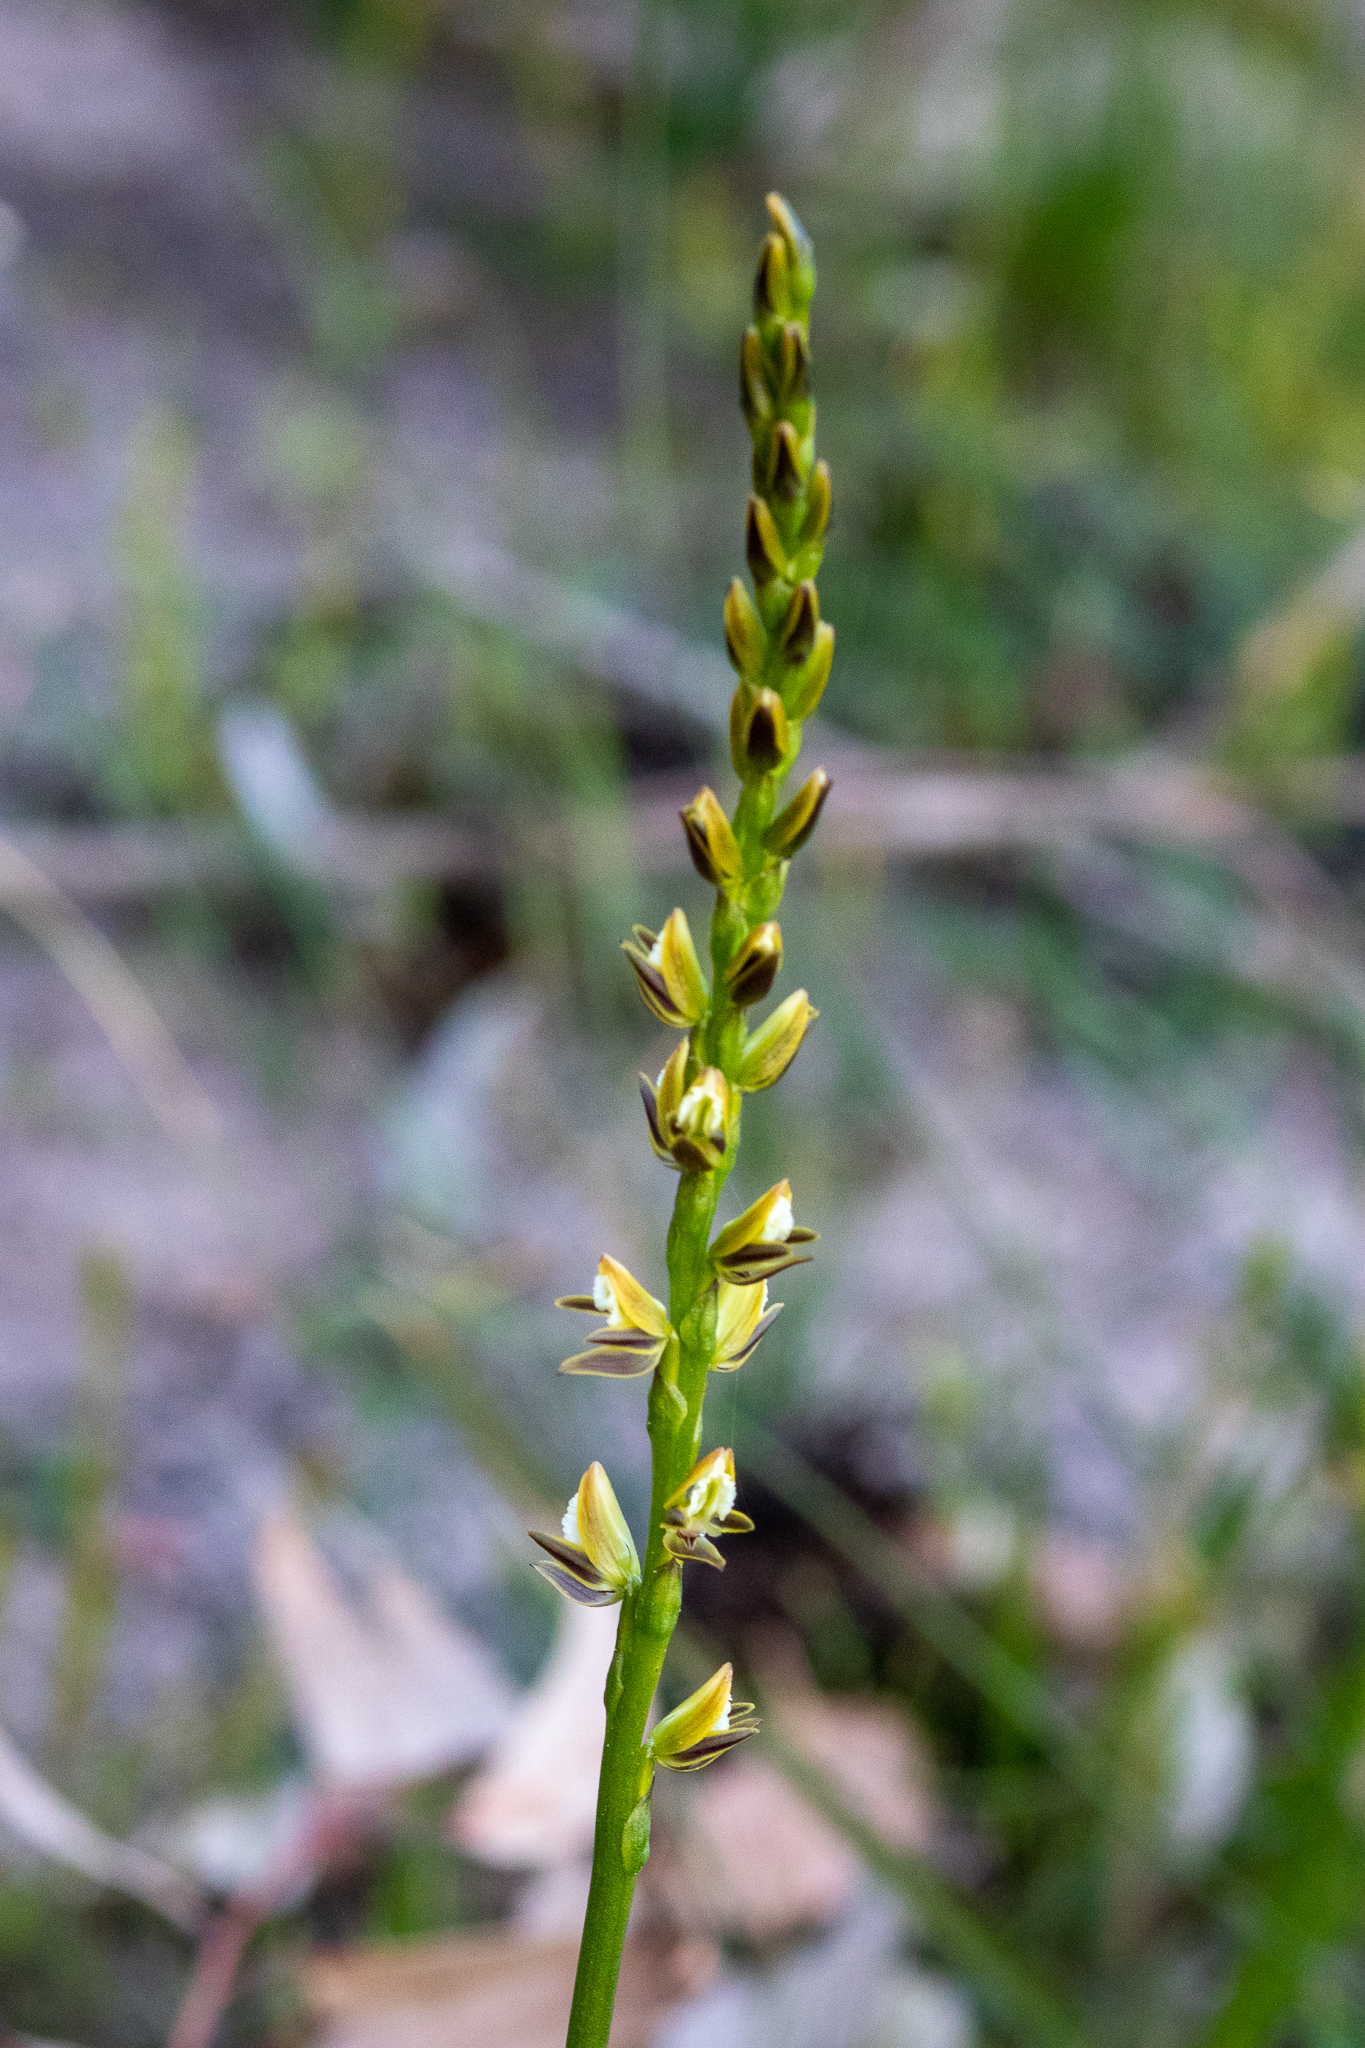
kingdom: Plantae
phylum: Tracheophyta
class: Liliopsida
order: Asparagales
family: Orchidaceae
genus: Prasophyllum
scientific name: Prasophyllum elatum
